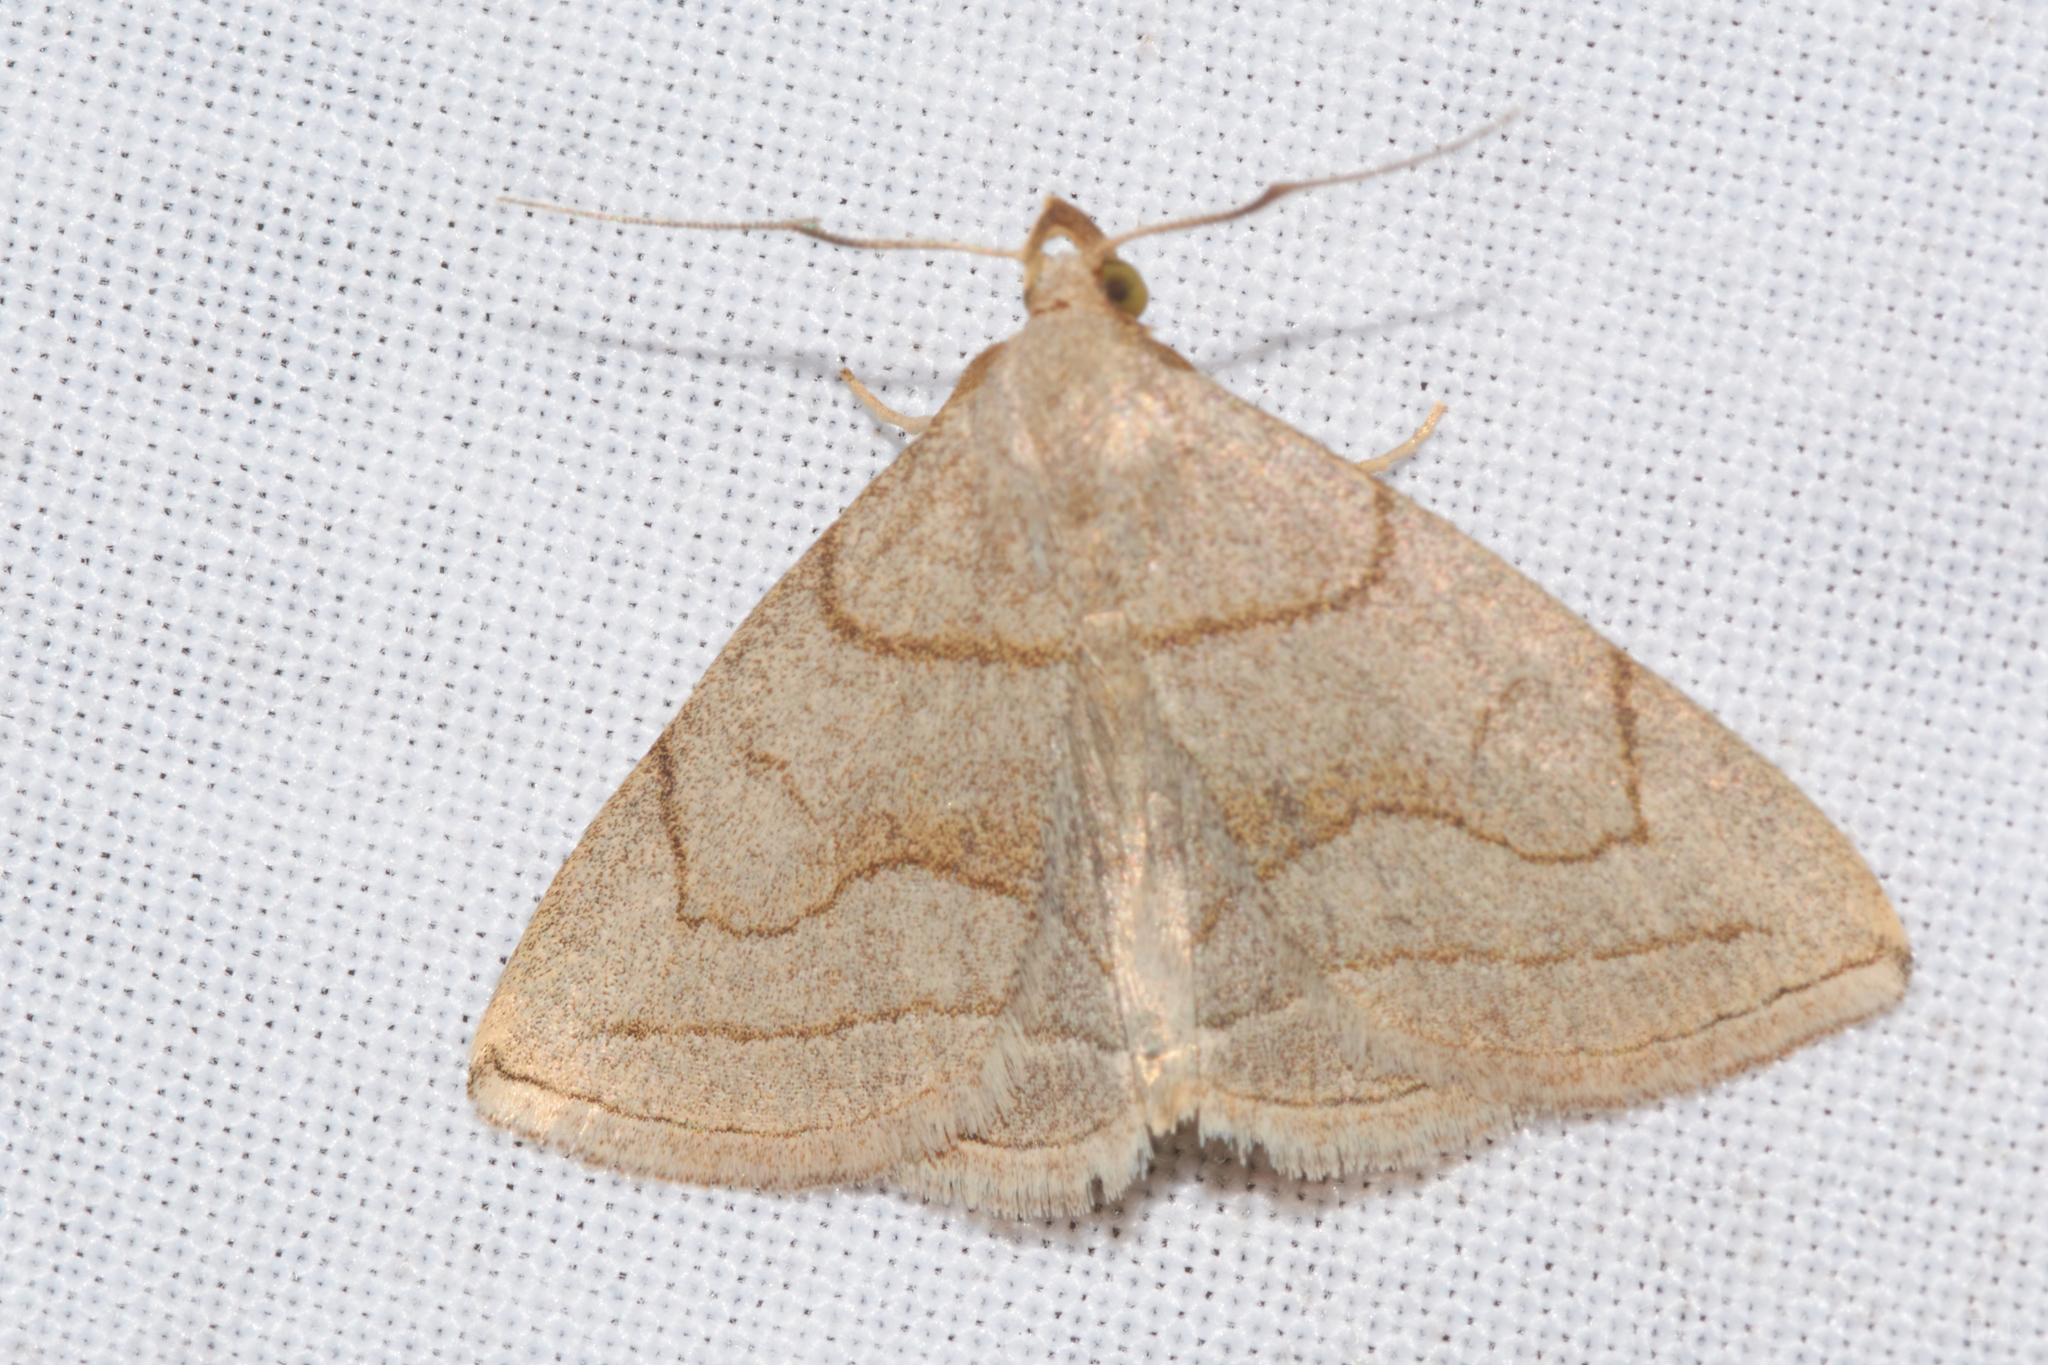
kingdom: Animalia
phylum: Arthropoda
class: Insecta
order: Lepidoptera
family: Erebidae
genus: Zanclognatha
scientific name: Zanclognatha pedipilalis
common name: Grayish fan-foot
